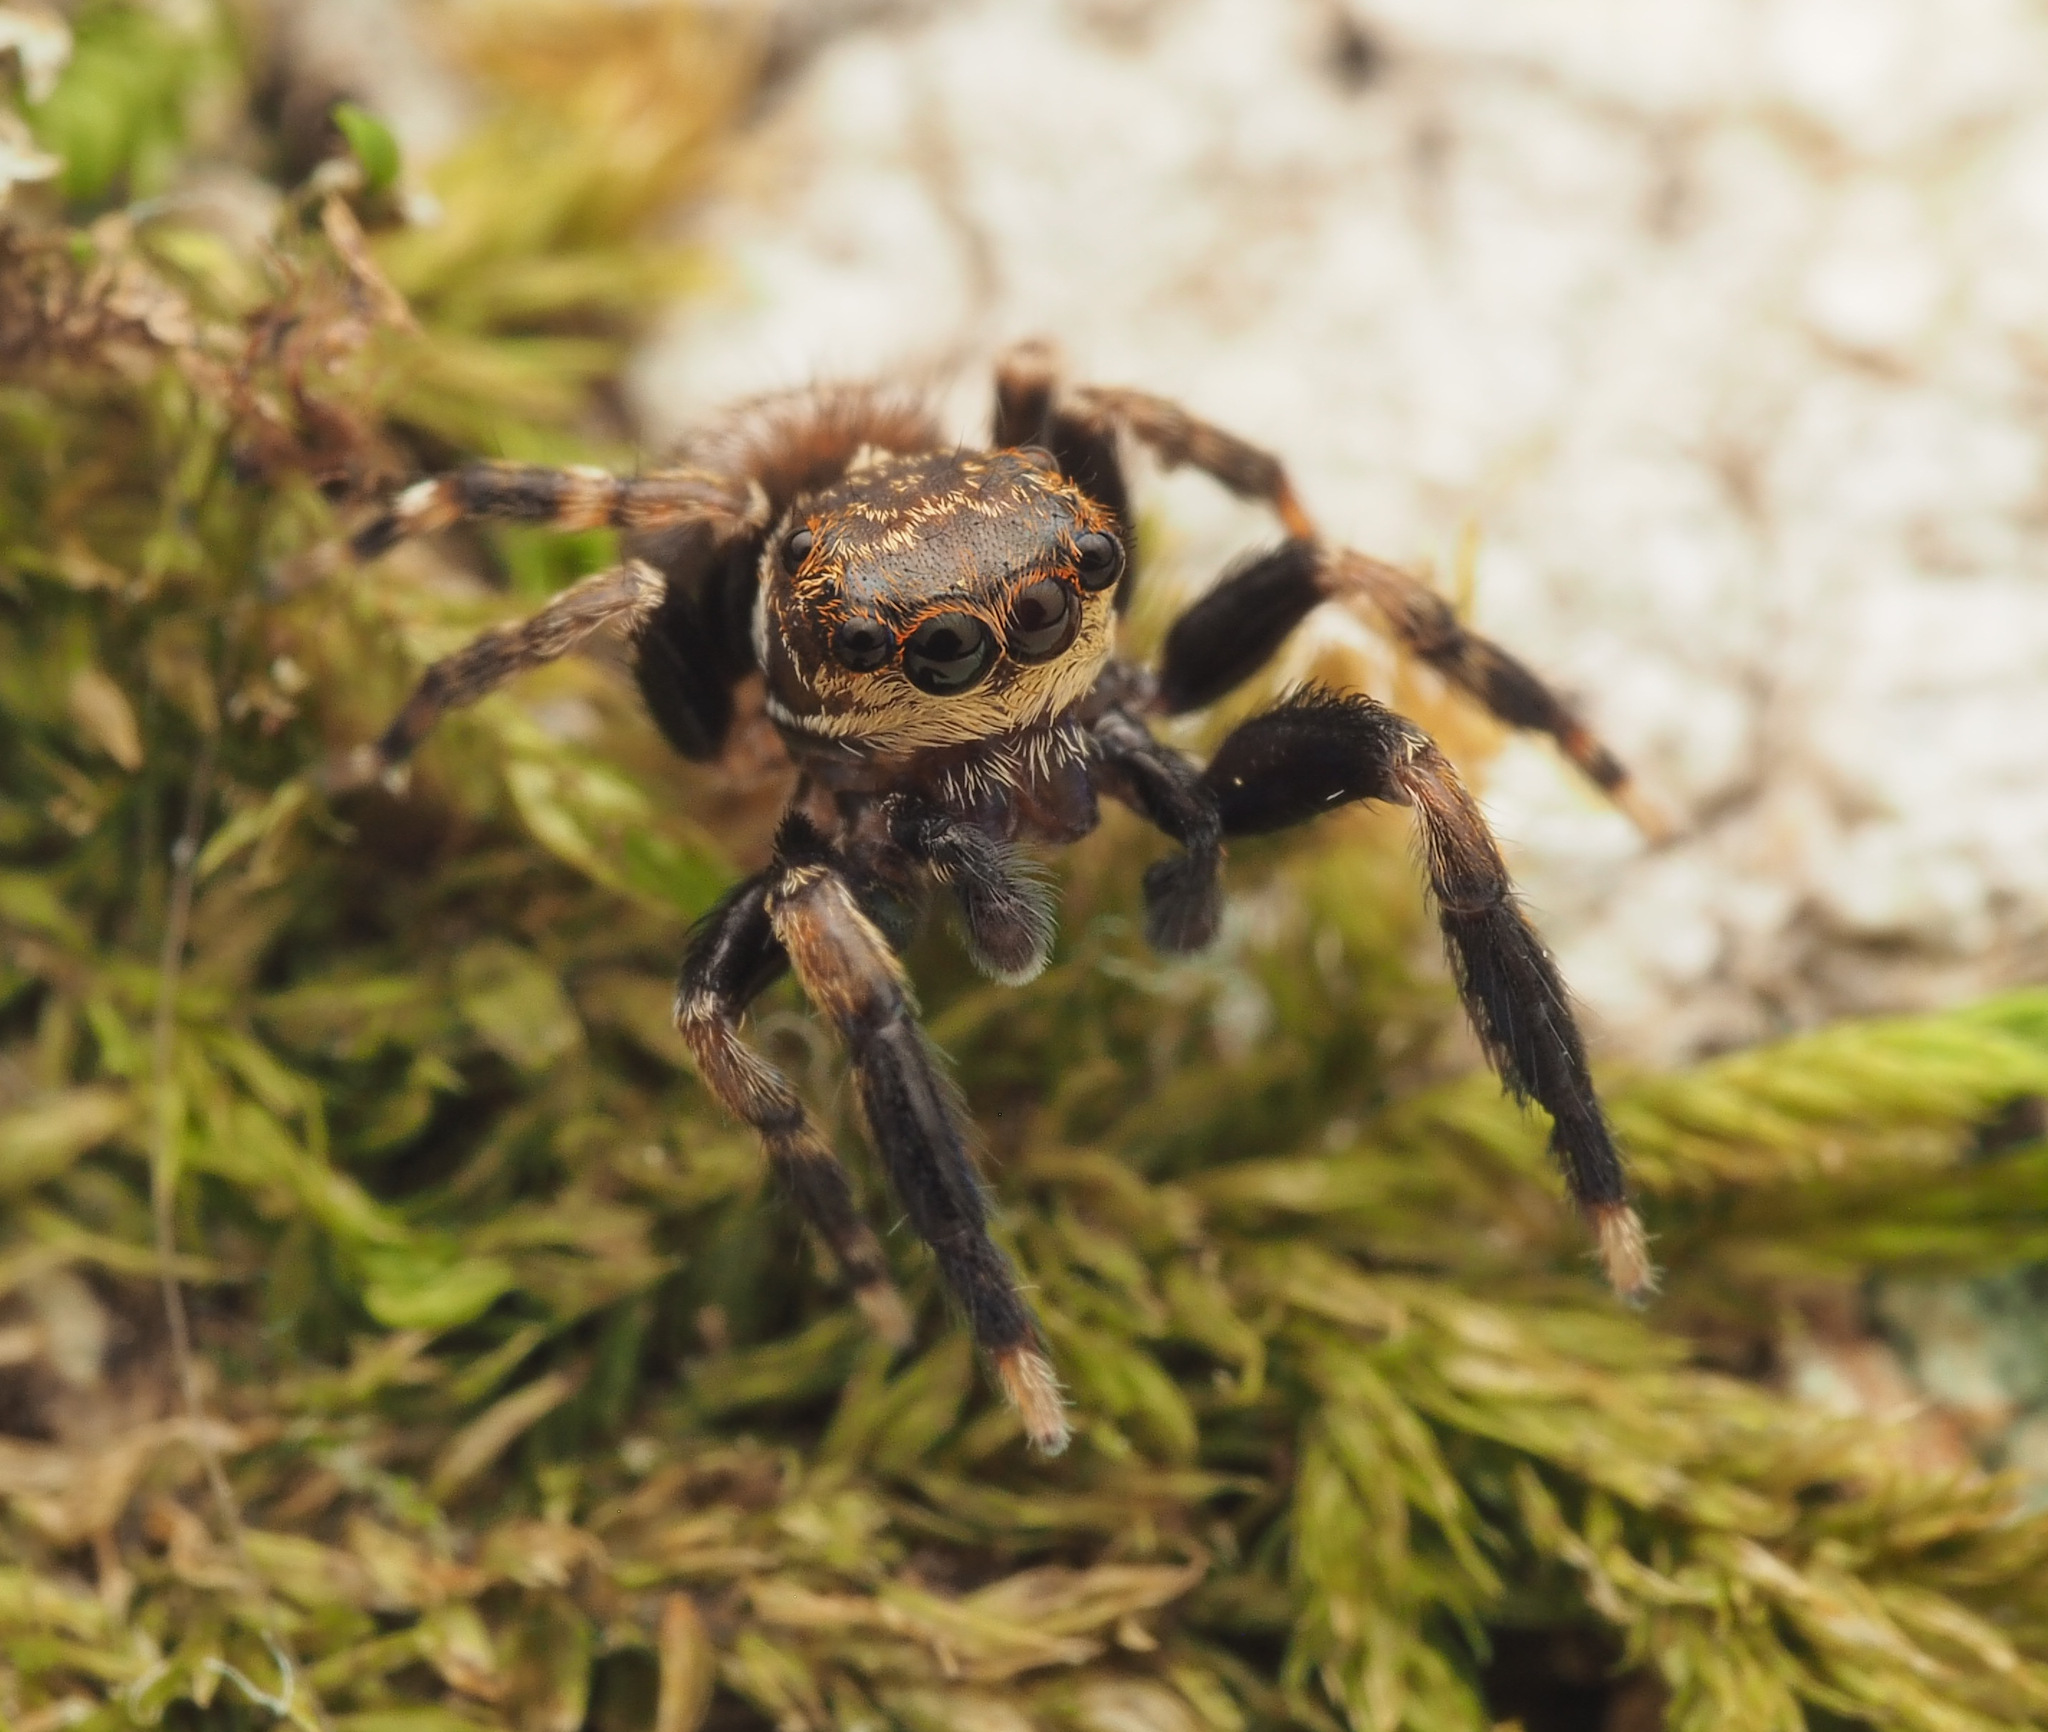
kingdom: Animalia
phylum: Arthropoda
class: Arachnida
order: Araneae
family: Salticidae
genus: Papuaneon
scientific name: Papuaneon
